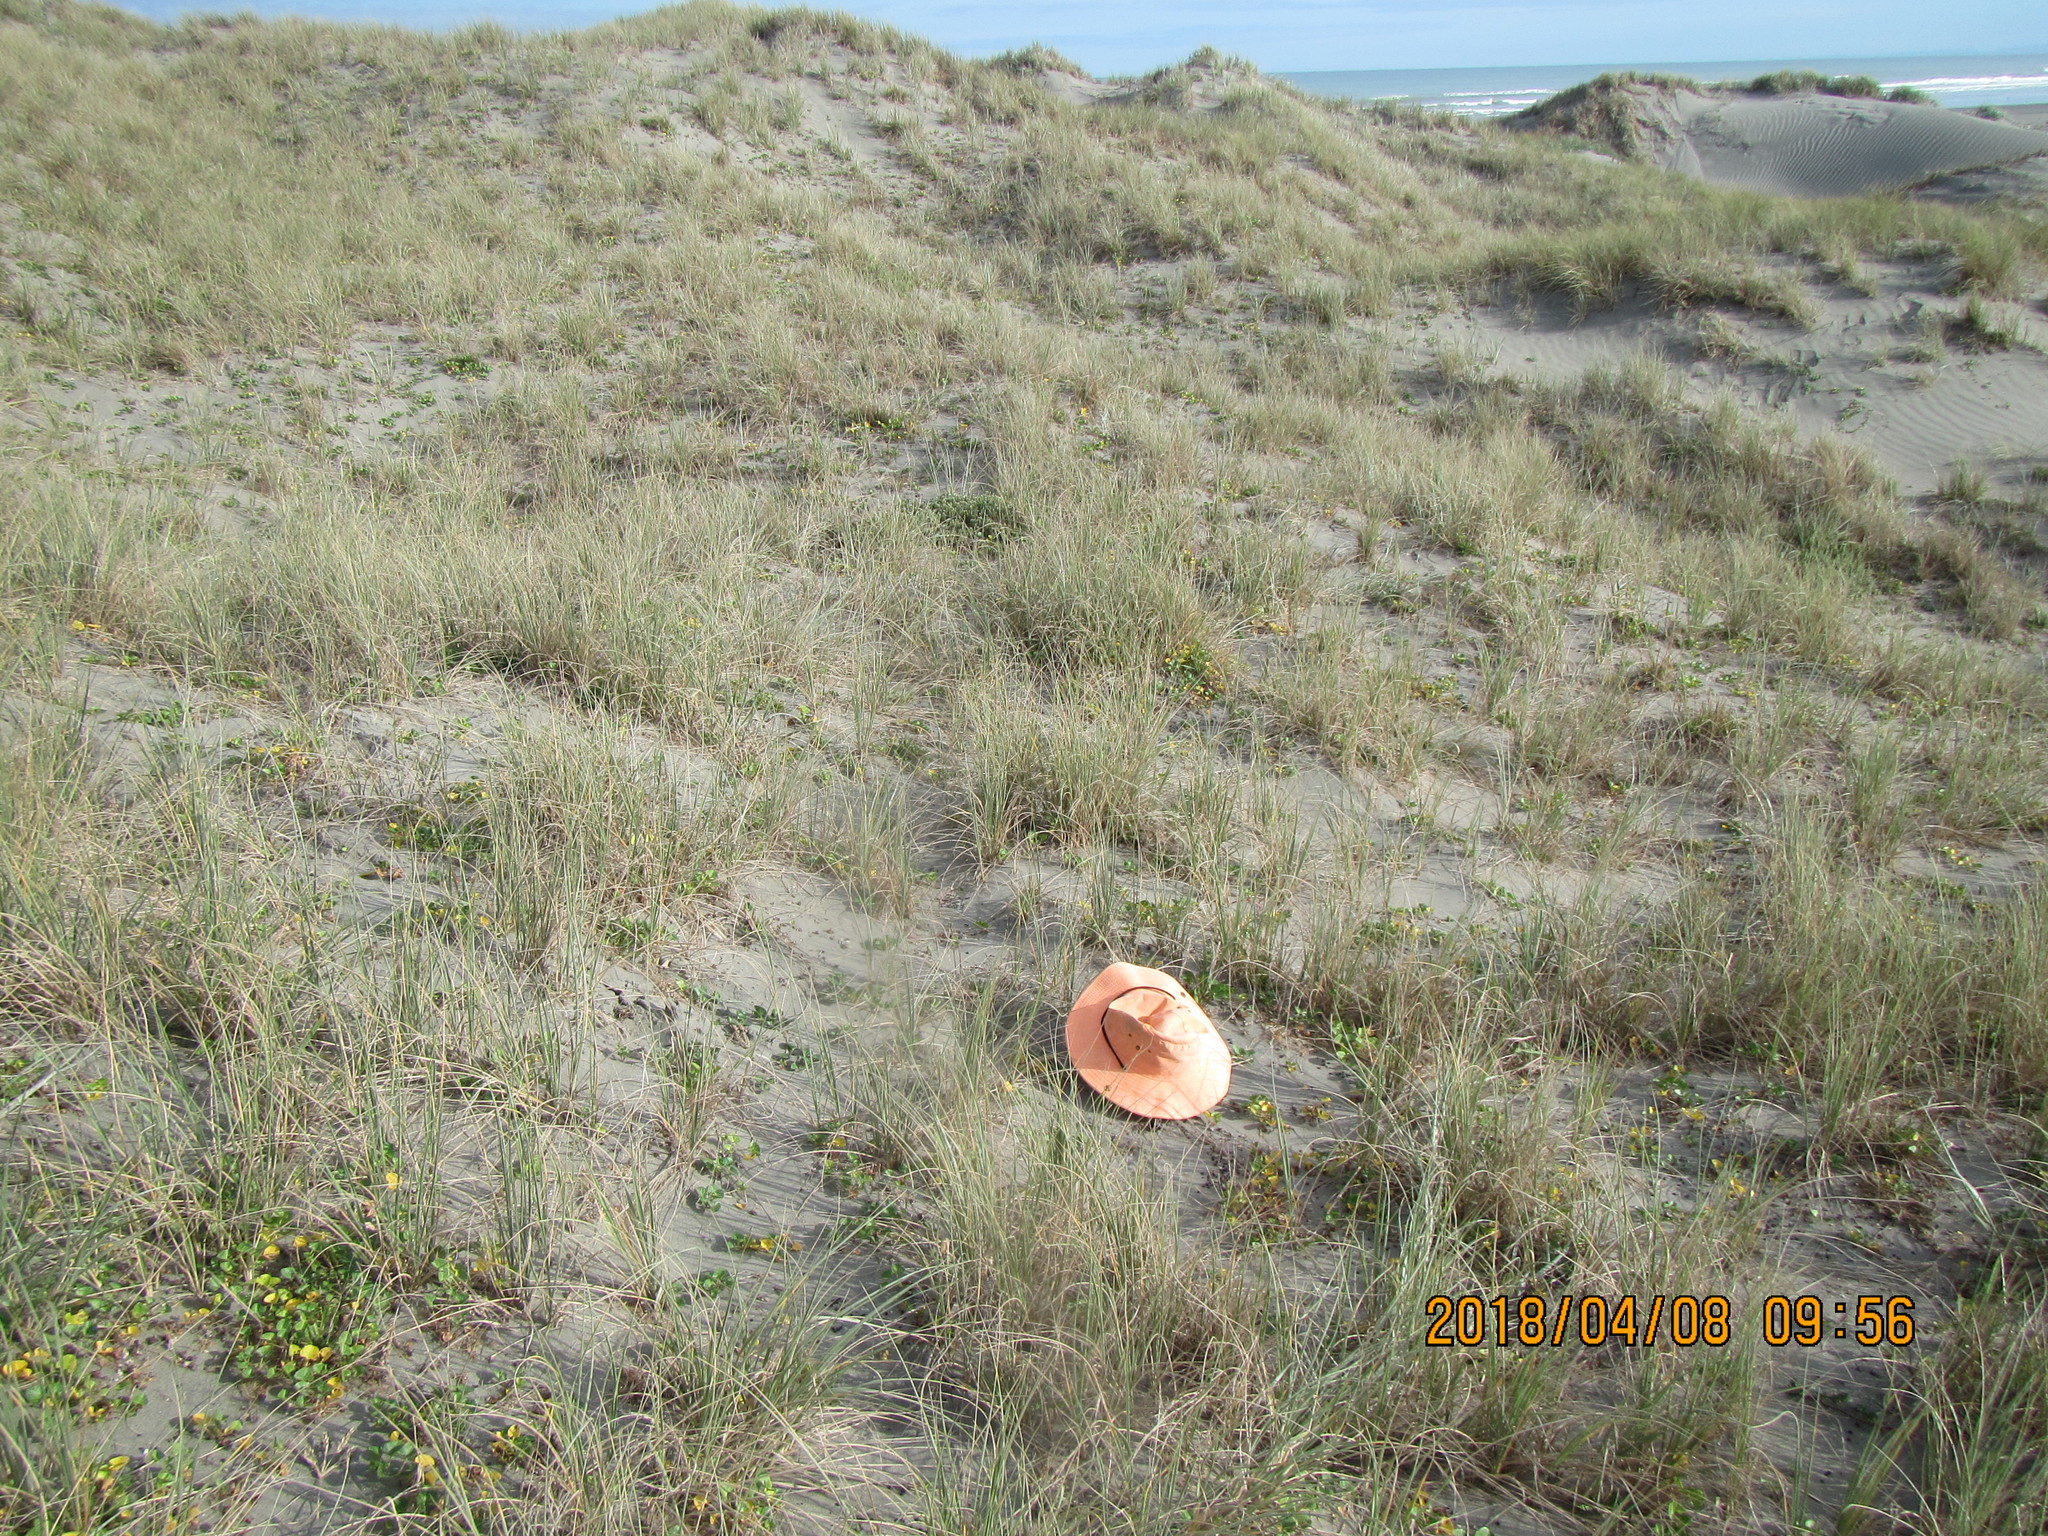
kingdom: Plantae
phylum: Tracheophyta
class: Magnoliopsida
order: Solanales
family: Convolvulaceae
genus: Calystegia
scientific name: Calystegia soldanella
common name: Sea bindweed
